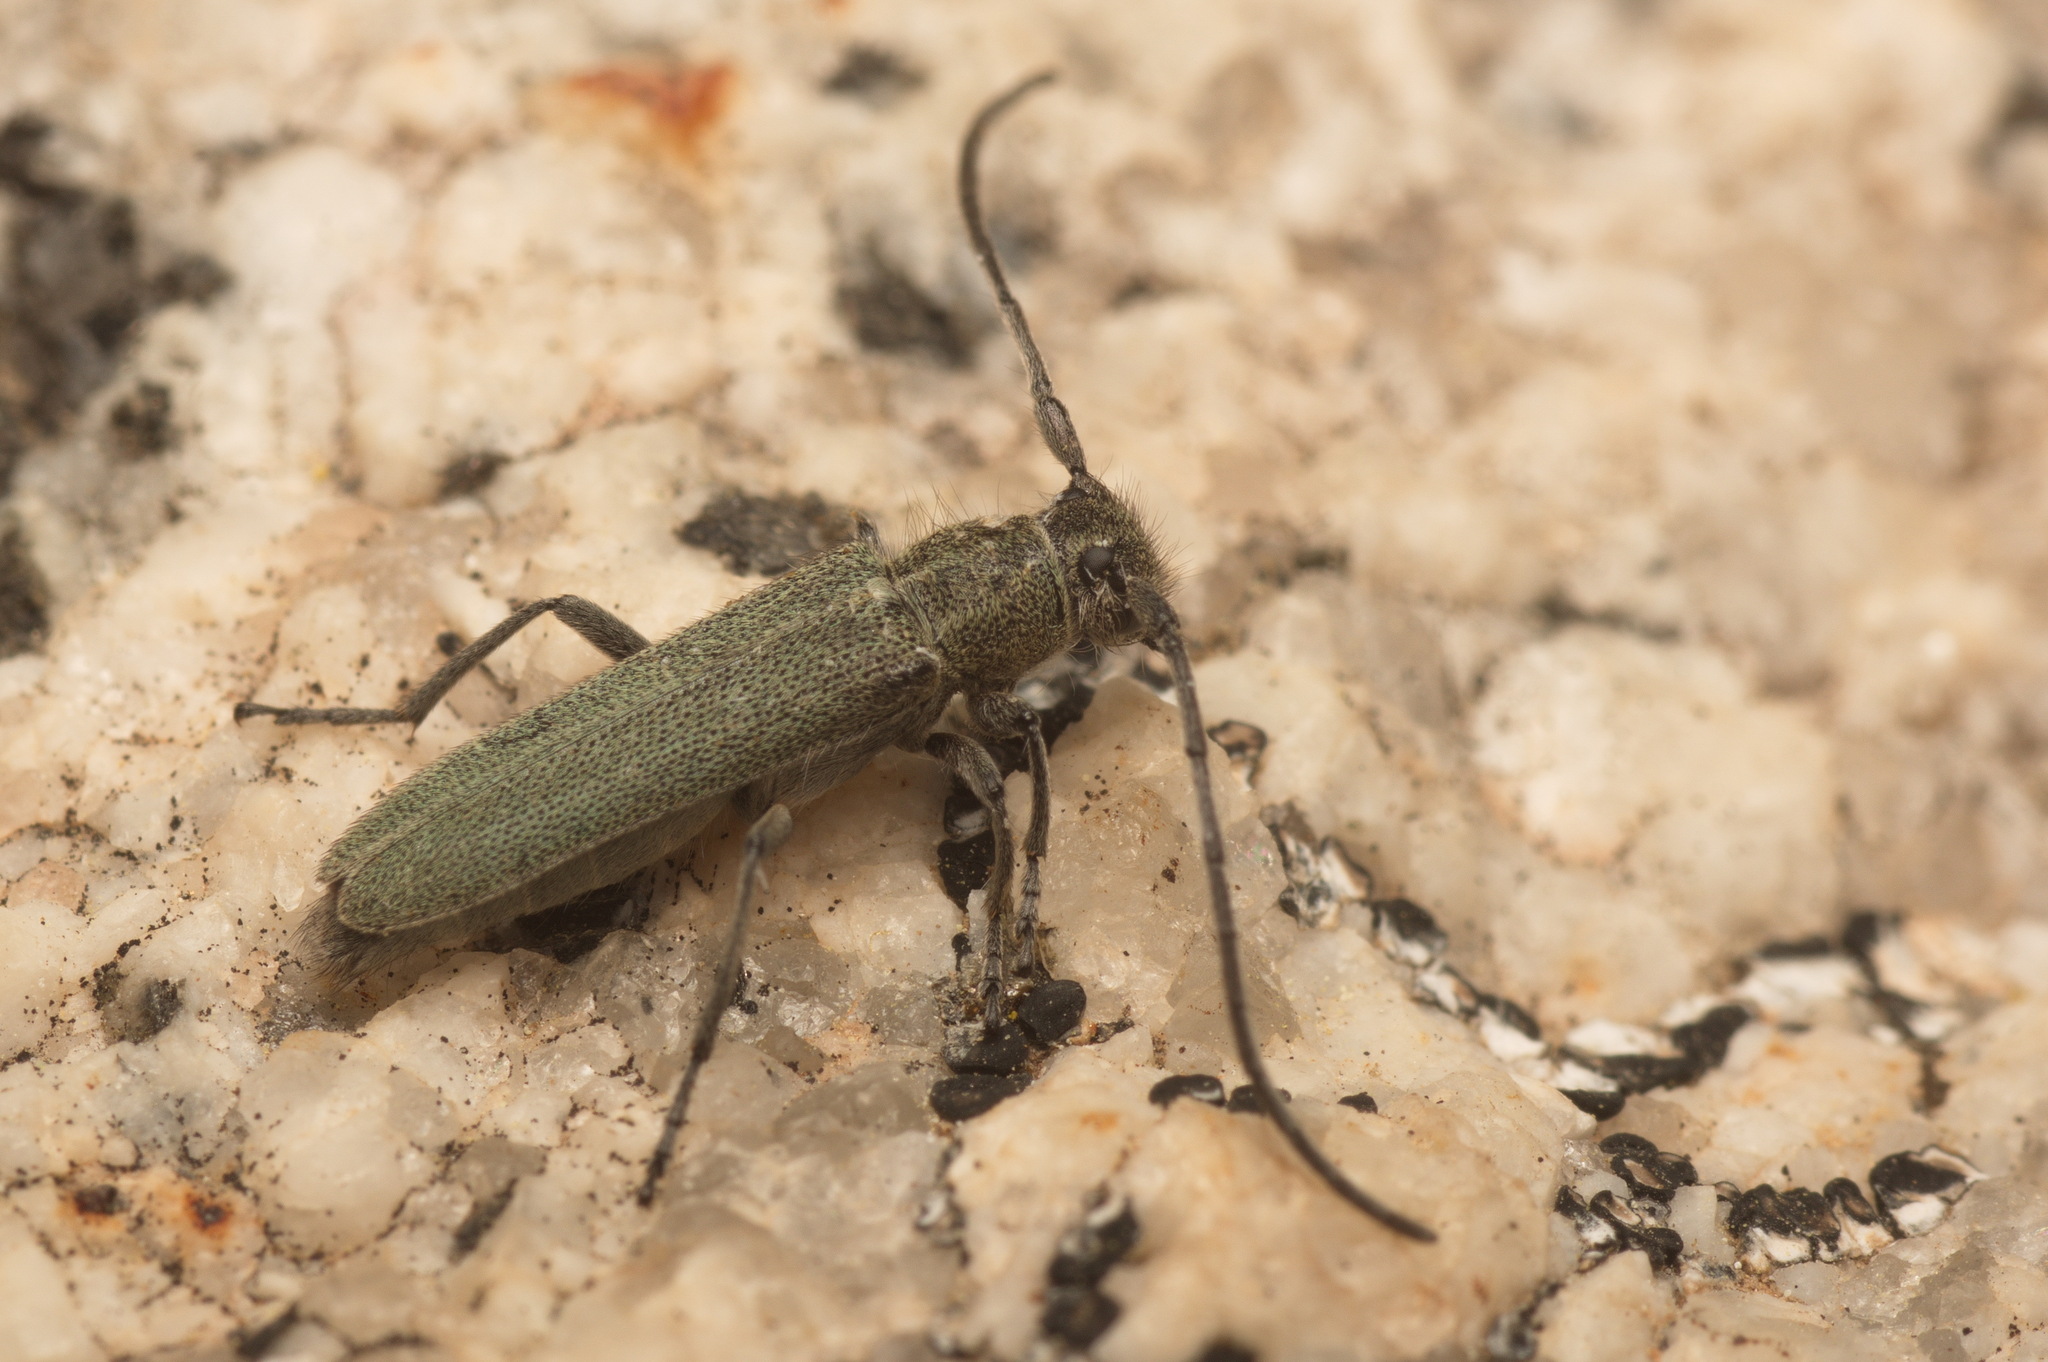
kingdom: Animalia
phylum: Arthropoda
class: Insecta
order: Coleoptera
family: Cerambycidae
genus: Phytoecia
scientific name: Phytoecia coerulescens
